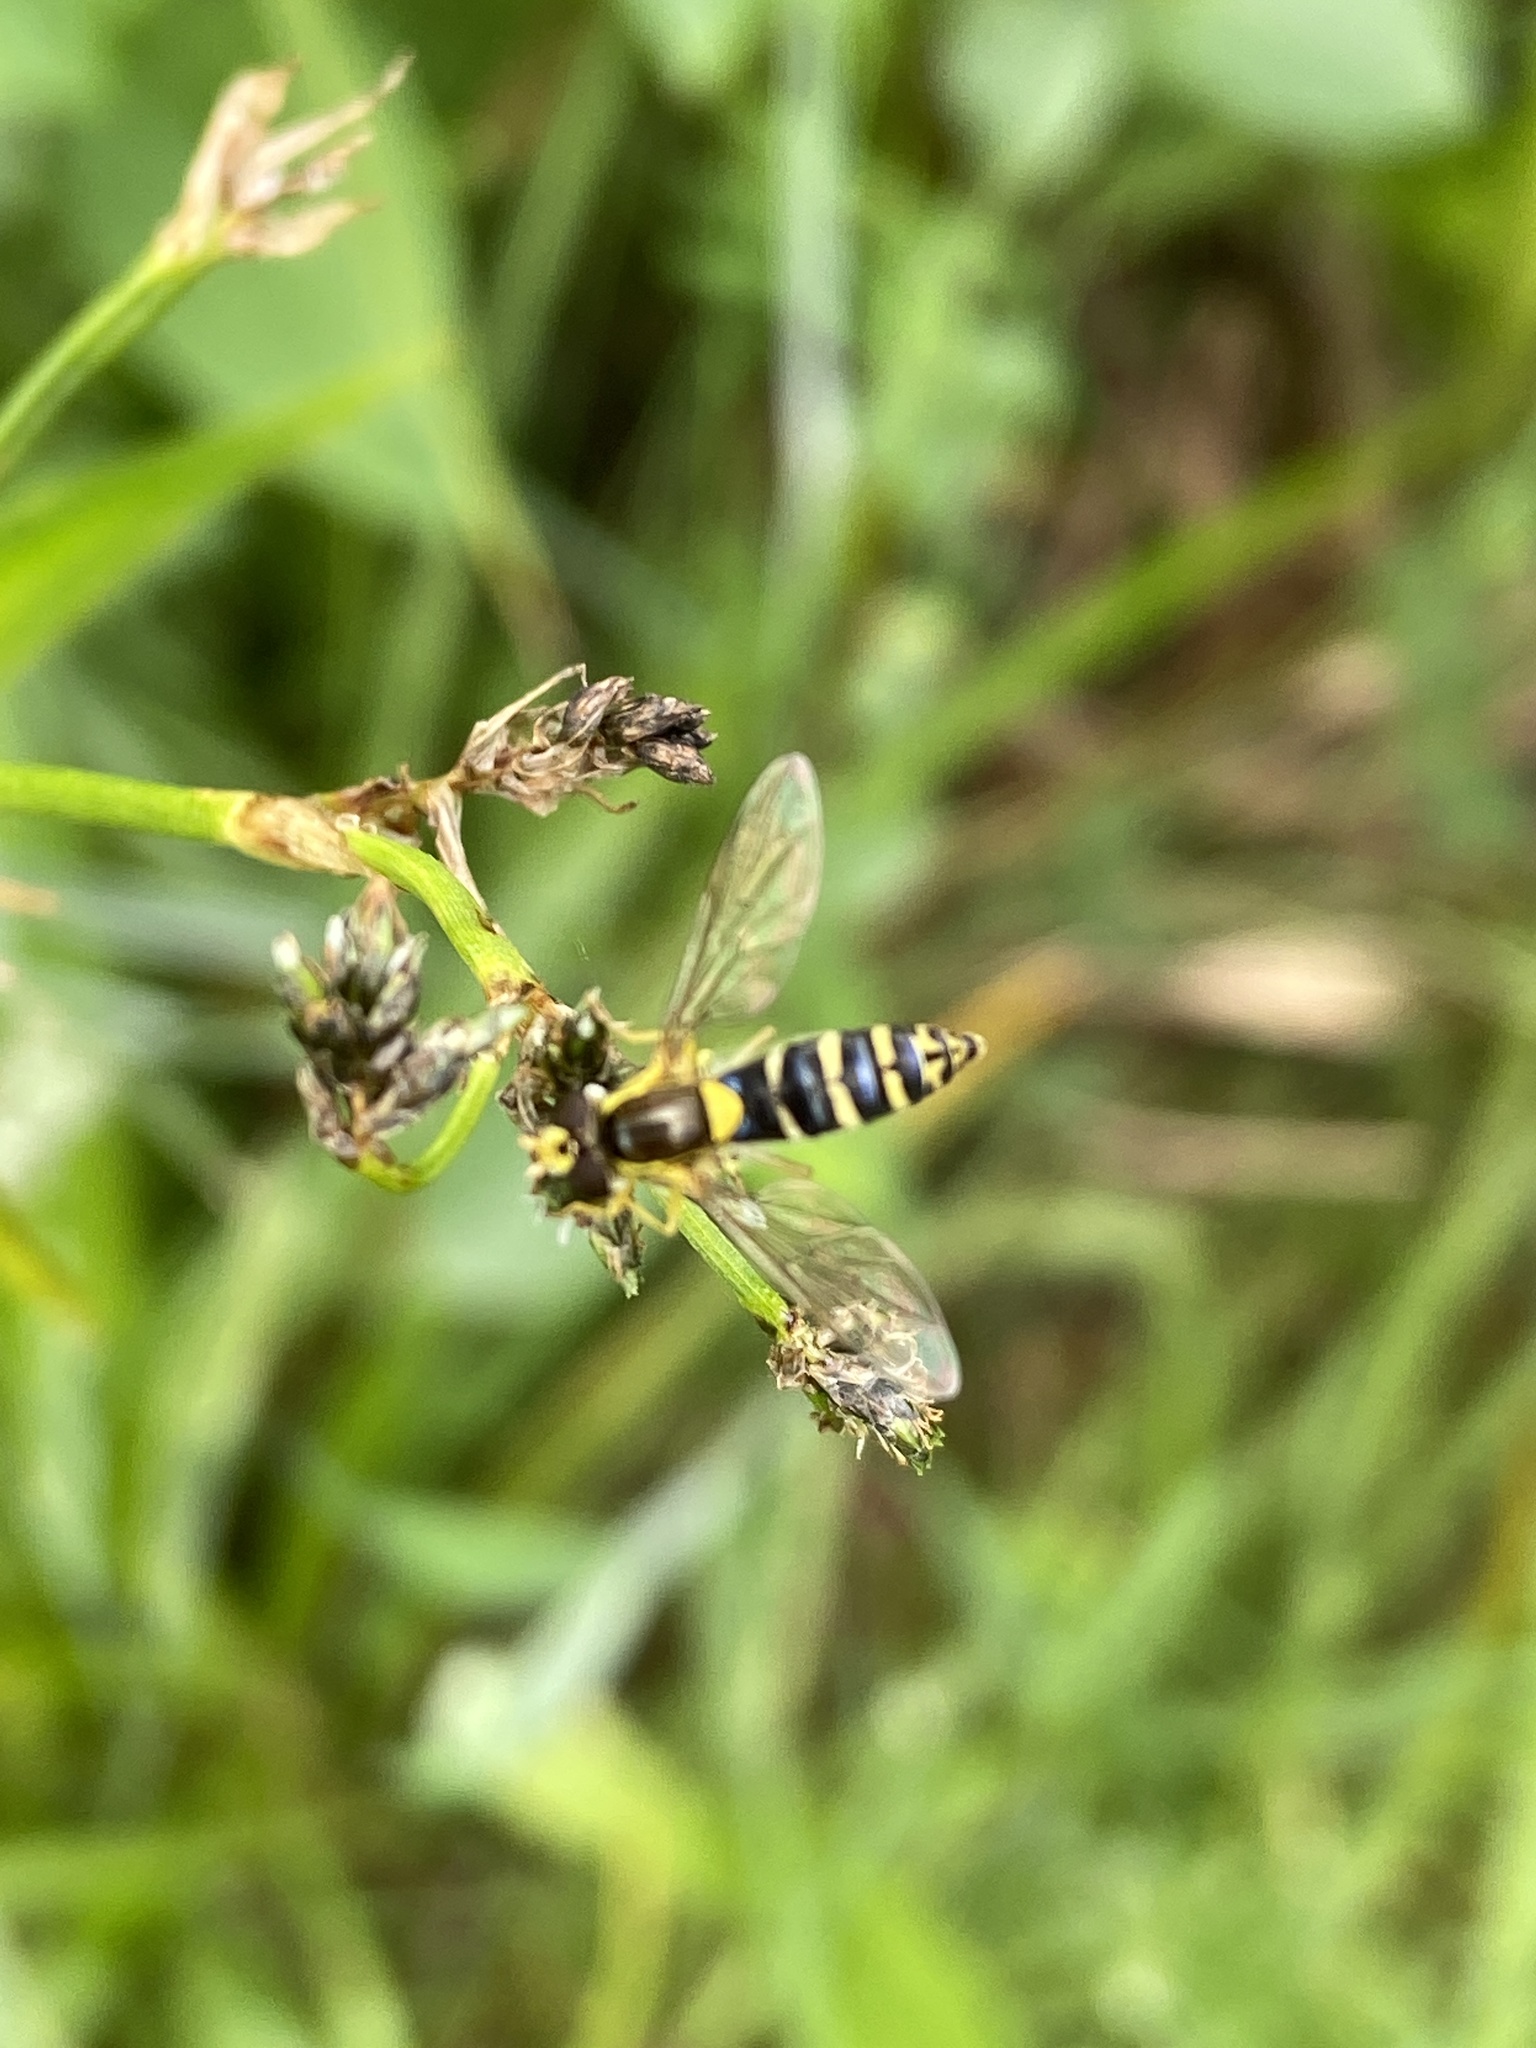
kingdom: Animalia
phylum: Arthropoda
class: Insecta
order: Diptera
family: Syrphidae
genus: Sphaerophoria
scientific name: Sphaerophoria
